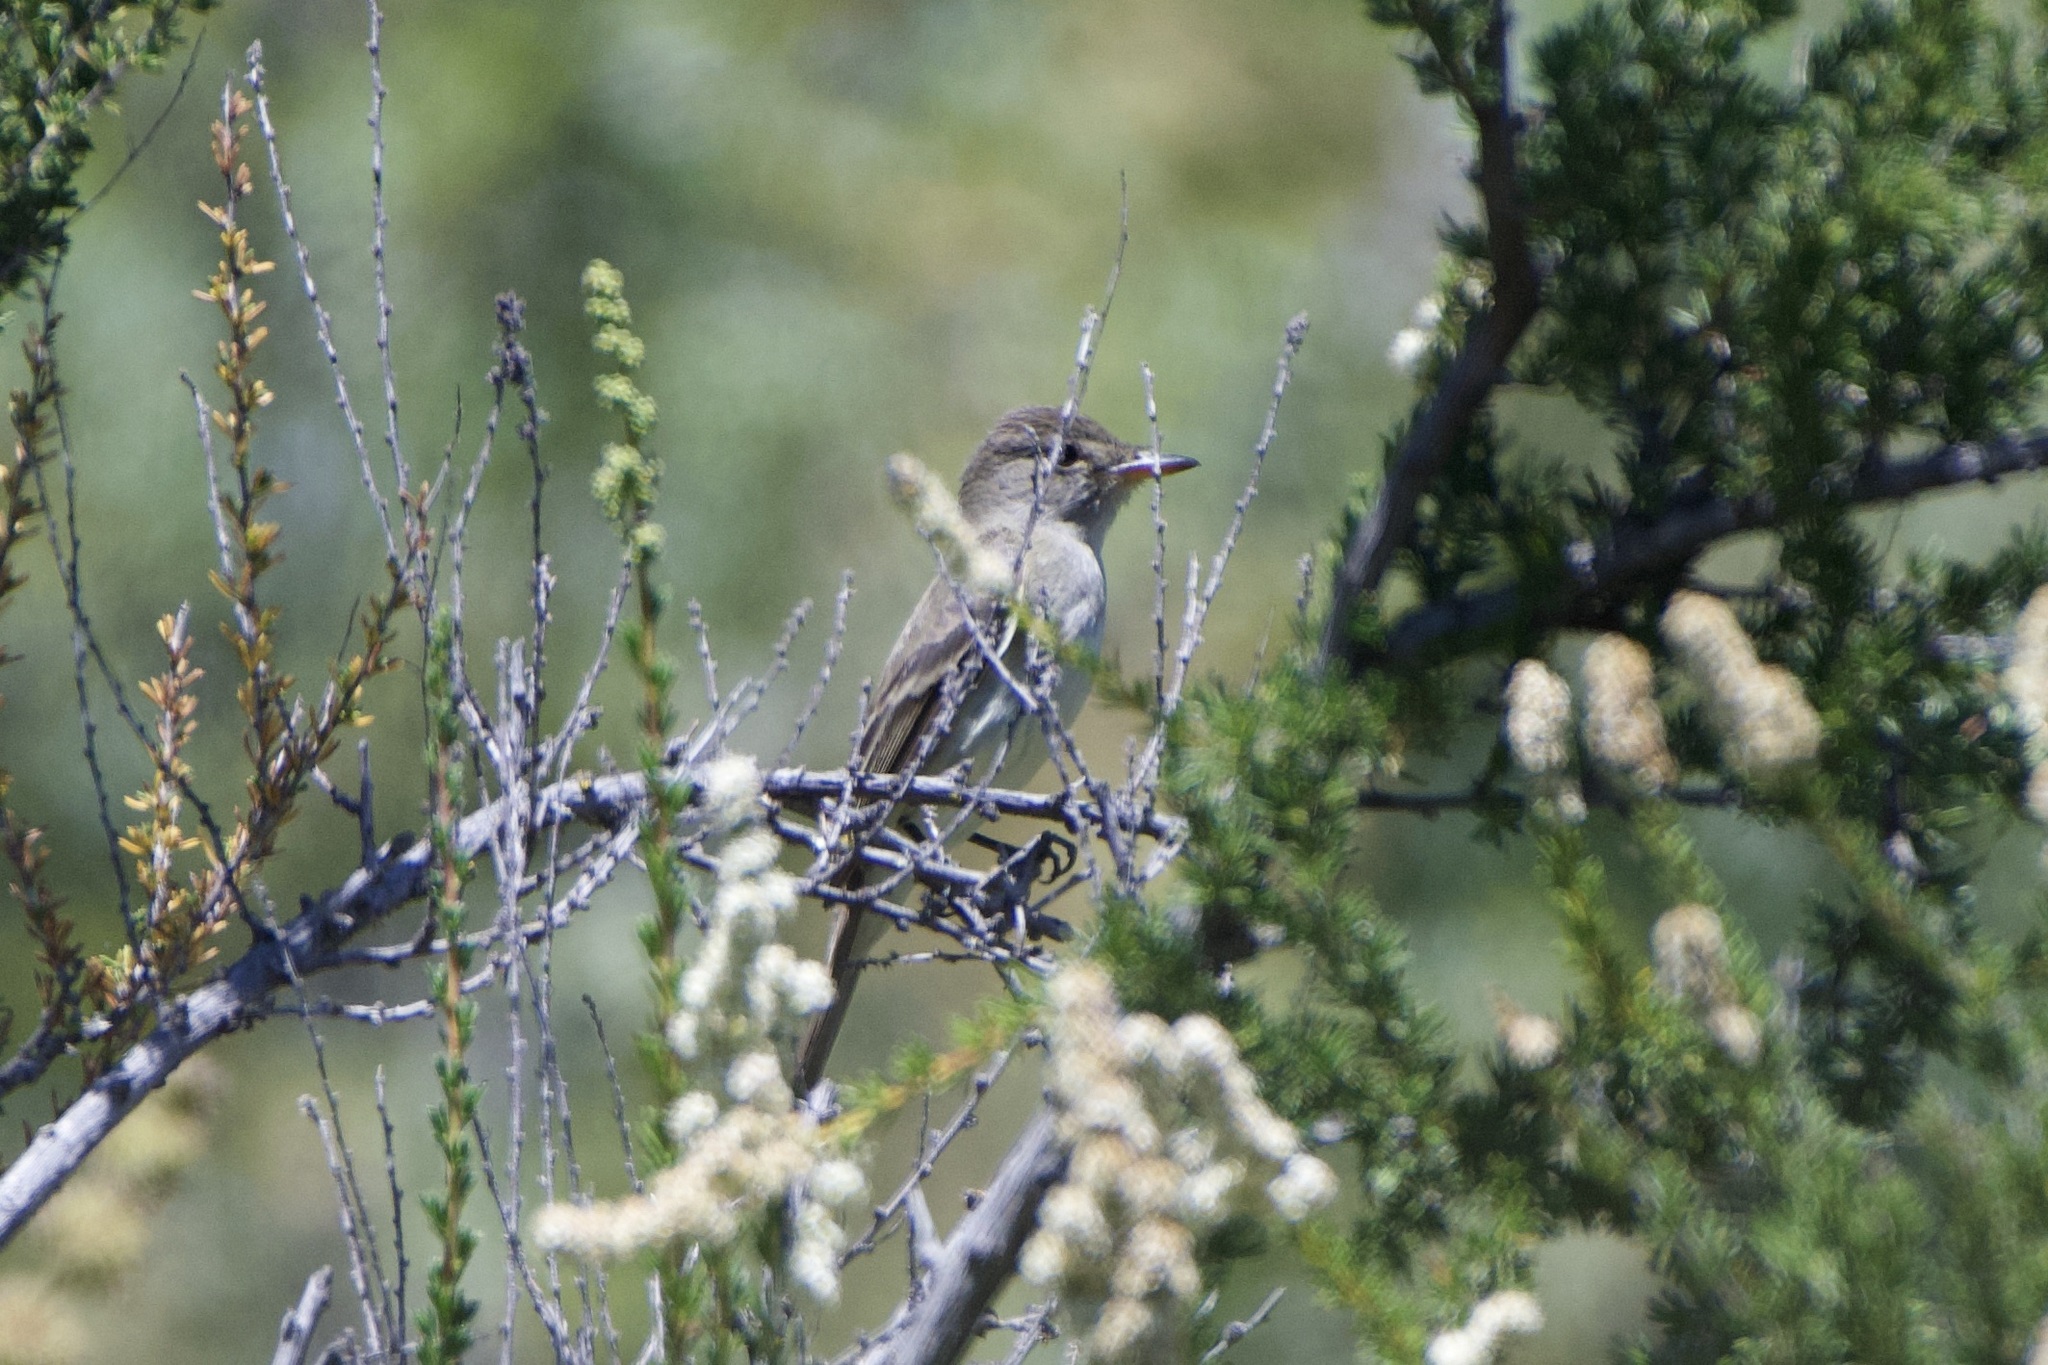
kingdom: Animalia
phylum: Chordata
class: Aves
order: Passeriformes
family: Tyrannidae
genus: Myiarchus
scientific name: Myiarchus cinerascens
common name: Ash-throated flycatcher
